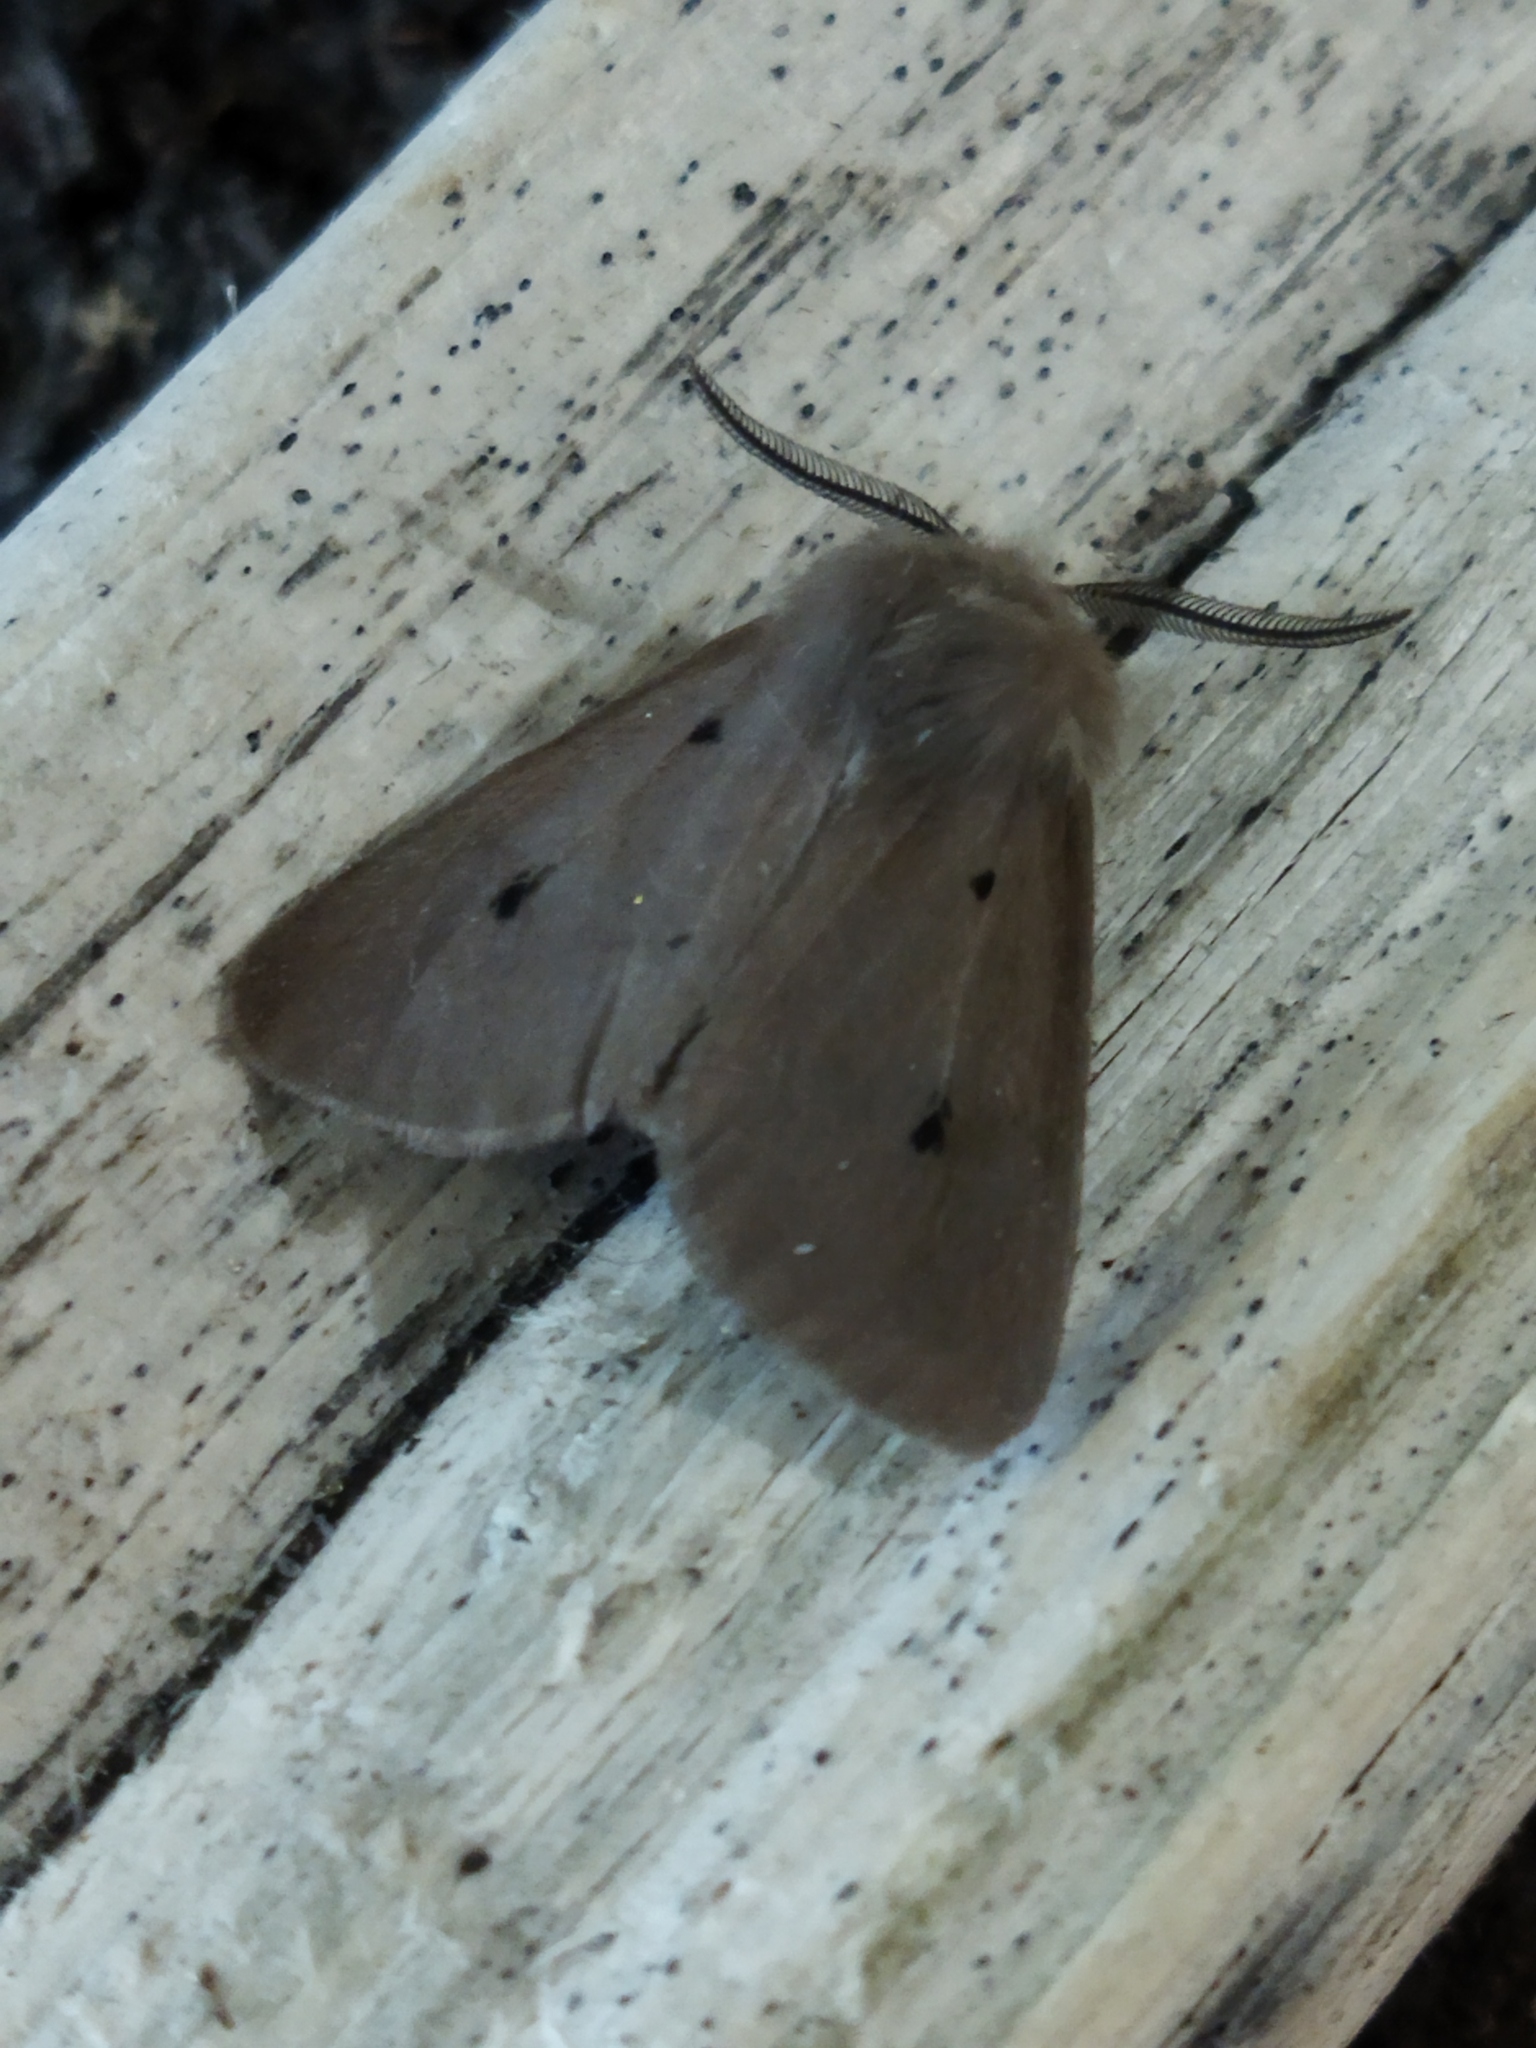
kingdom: Animalia
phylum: Arthropoda
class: Insecta
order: Lepidoptera
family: Erebidae
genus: Diaphora
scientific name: Diaphora mendica
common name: Muslin moth
